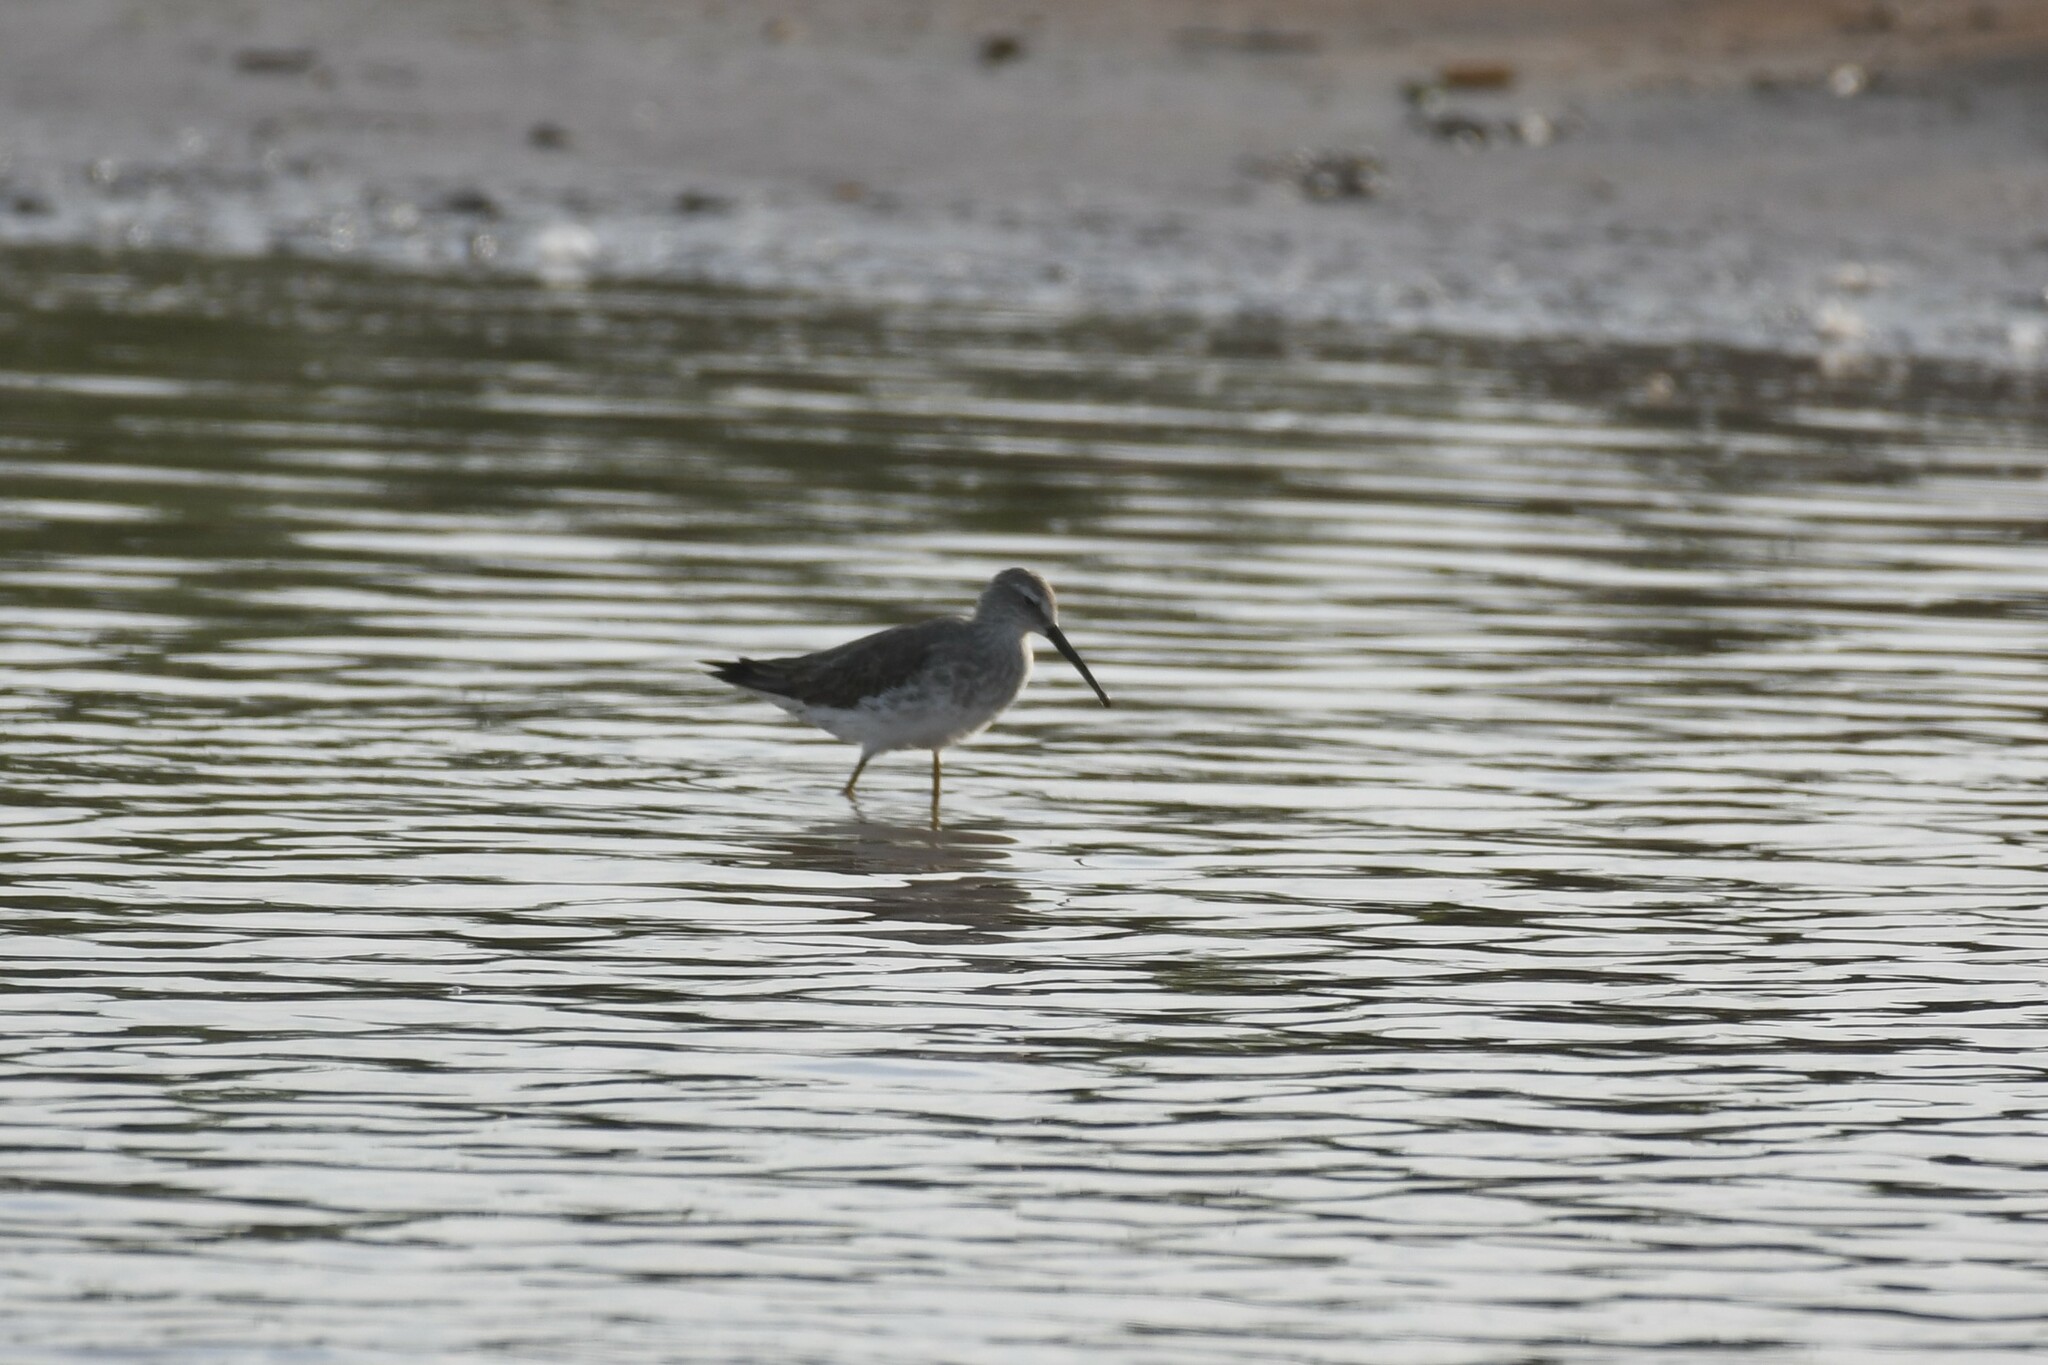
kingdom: Animalia
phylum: Chordata
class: Aves
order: Charadriiformes
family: Scolopacidae
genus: Calidris
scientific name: Calidris himantopus
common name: Stilt sandpiper
